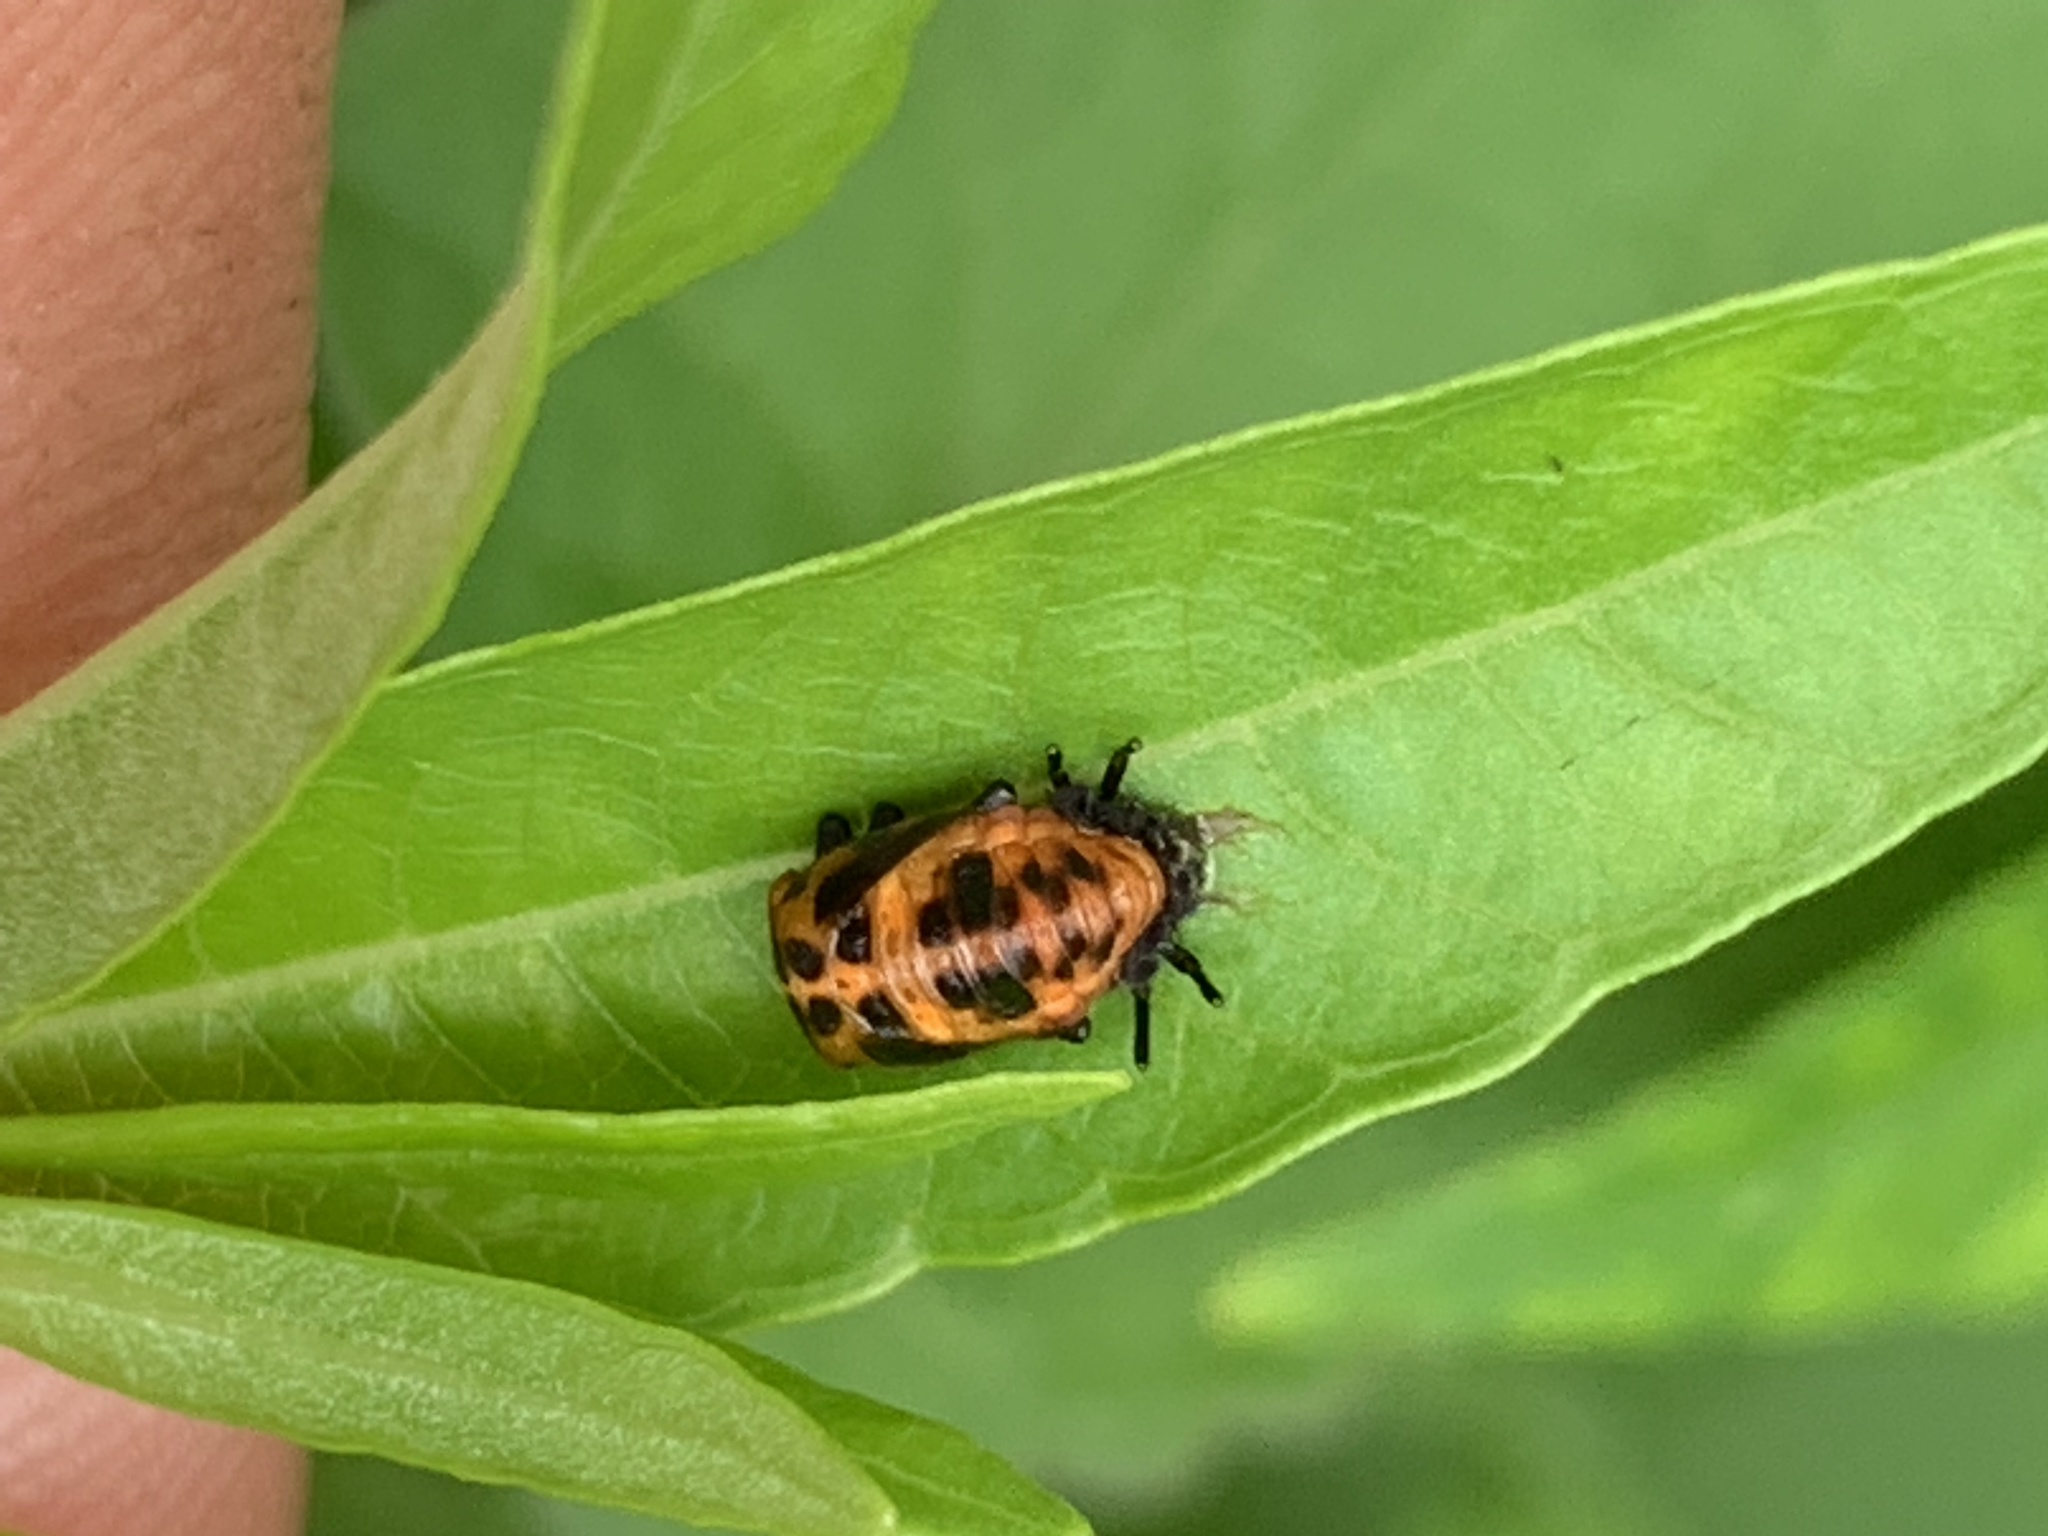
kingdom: Animalia
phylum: Arthropoda
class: Insecta
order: Coleoptera
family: Coccinellidae
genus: Coccinella
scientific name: Coccinella septempunctata
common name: Sevenspotted lady beetle
